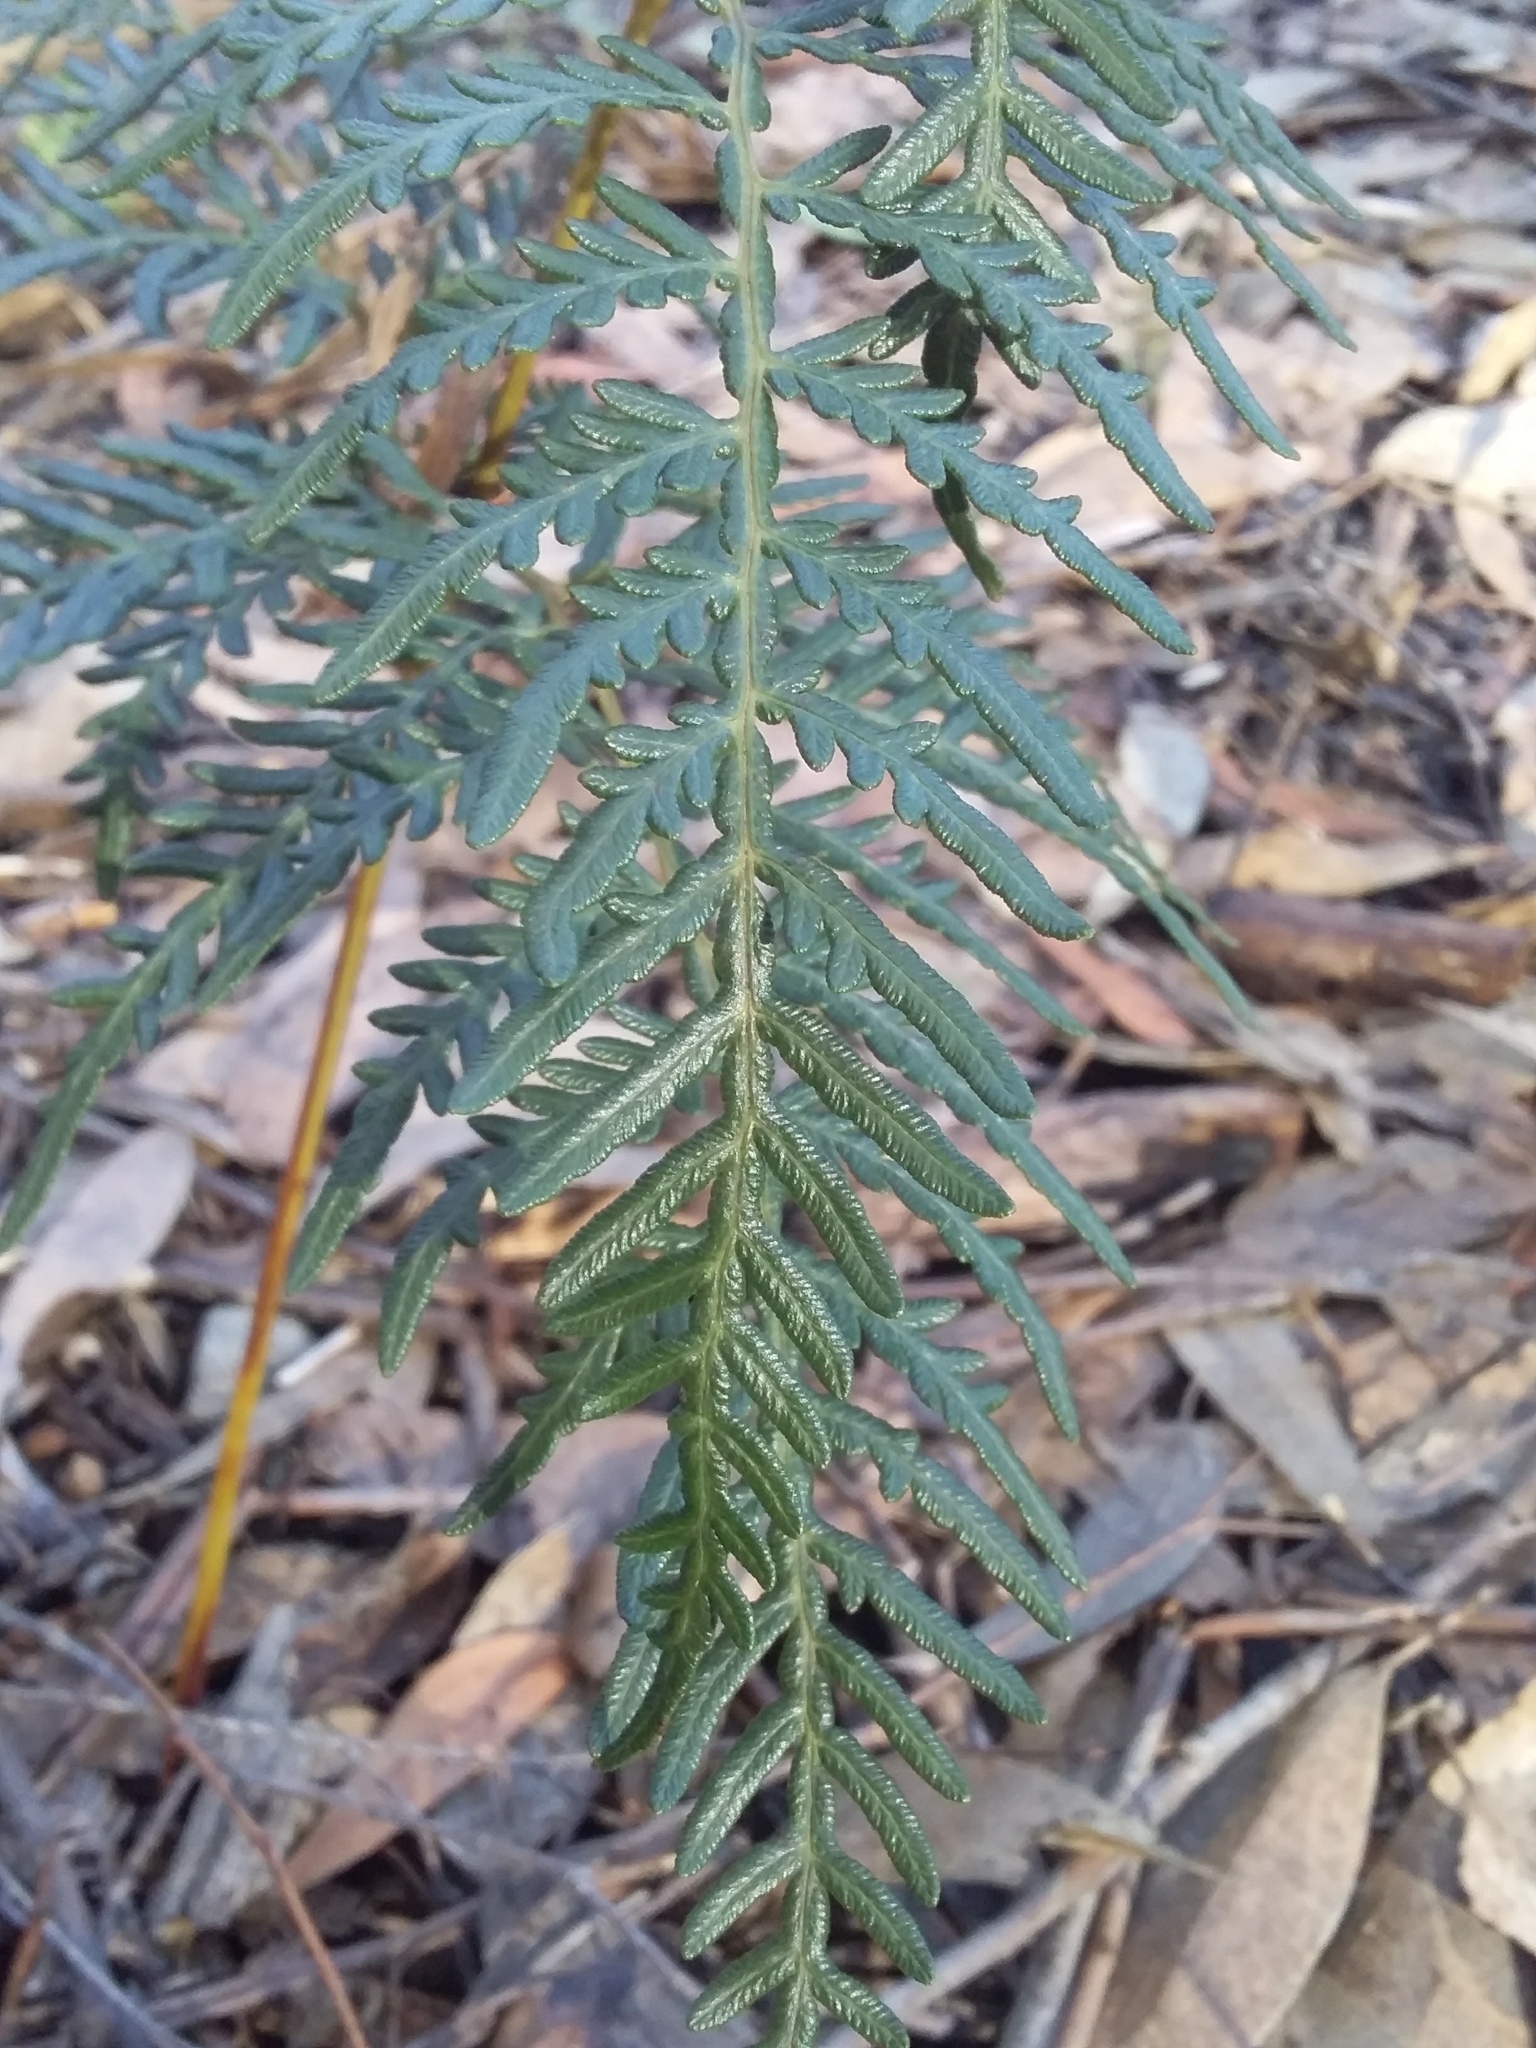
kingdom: Plantae
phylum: Tracheophyta
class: Polypodiopsida
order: Polypodiales
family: Dennstaedtiaceae
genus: Pteridium
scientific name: Pteridium esculentum
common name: Bracken fern
